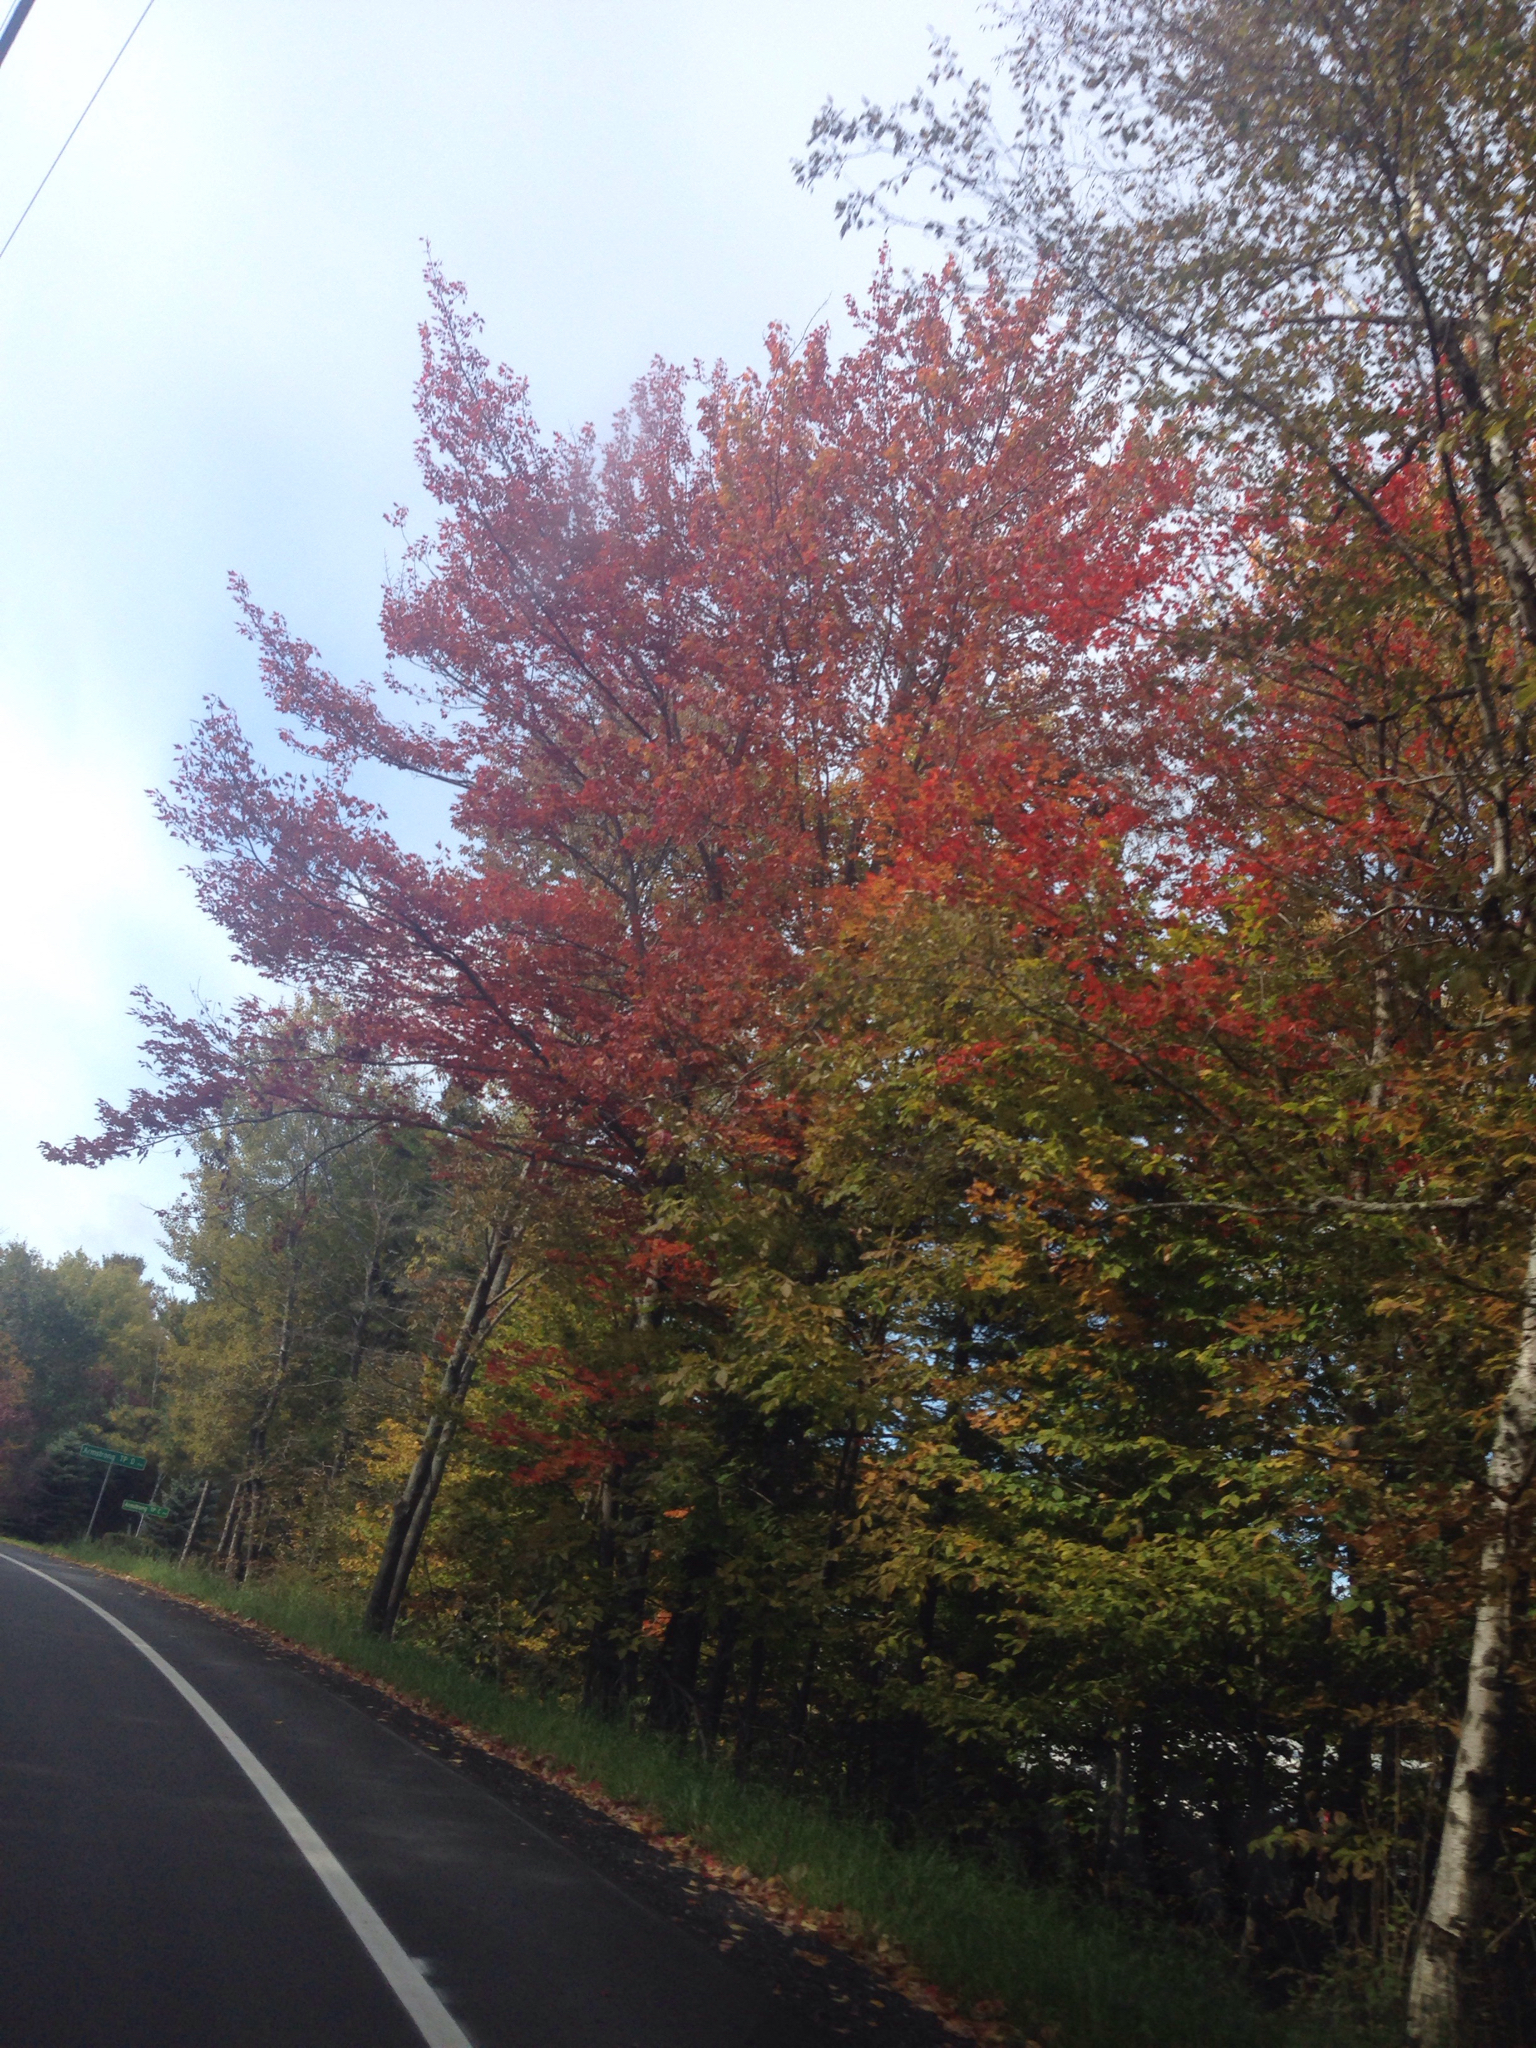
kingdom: Plantae
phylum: Tracheophyta
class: Magnoliopsida
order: Sapindales
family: Sapindaceae
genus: Acer
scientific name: Acer rubrum
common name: Red maple
